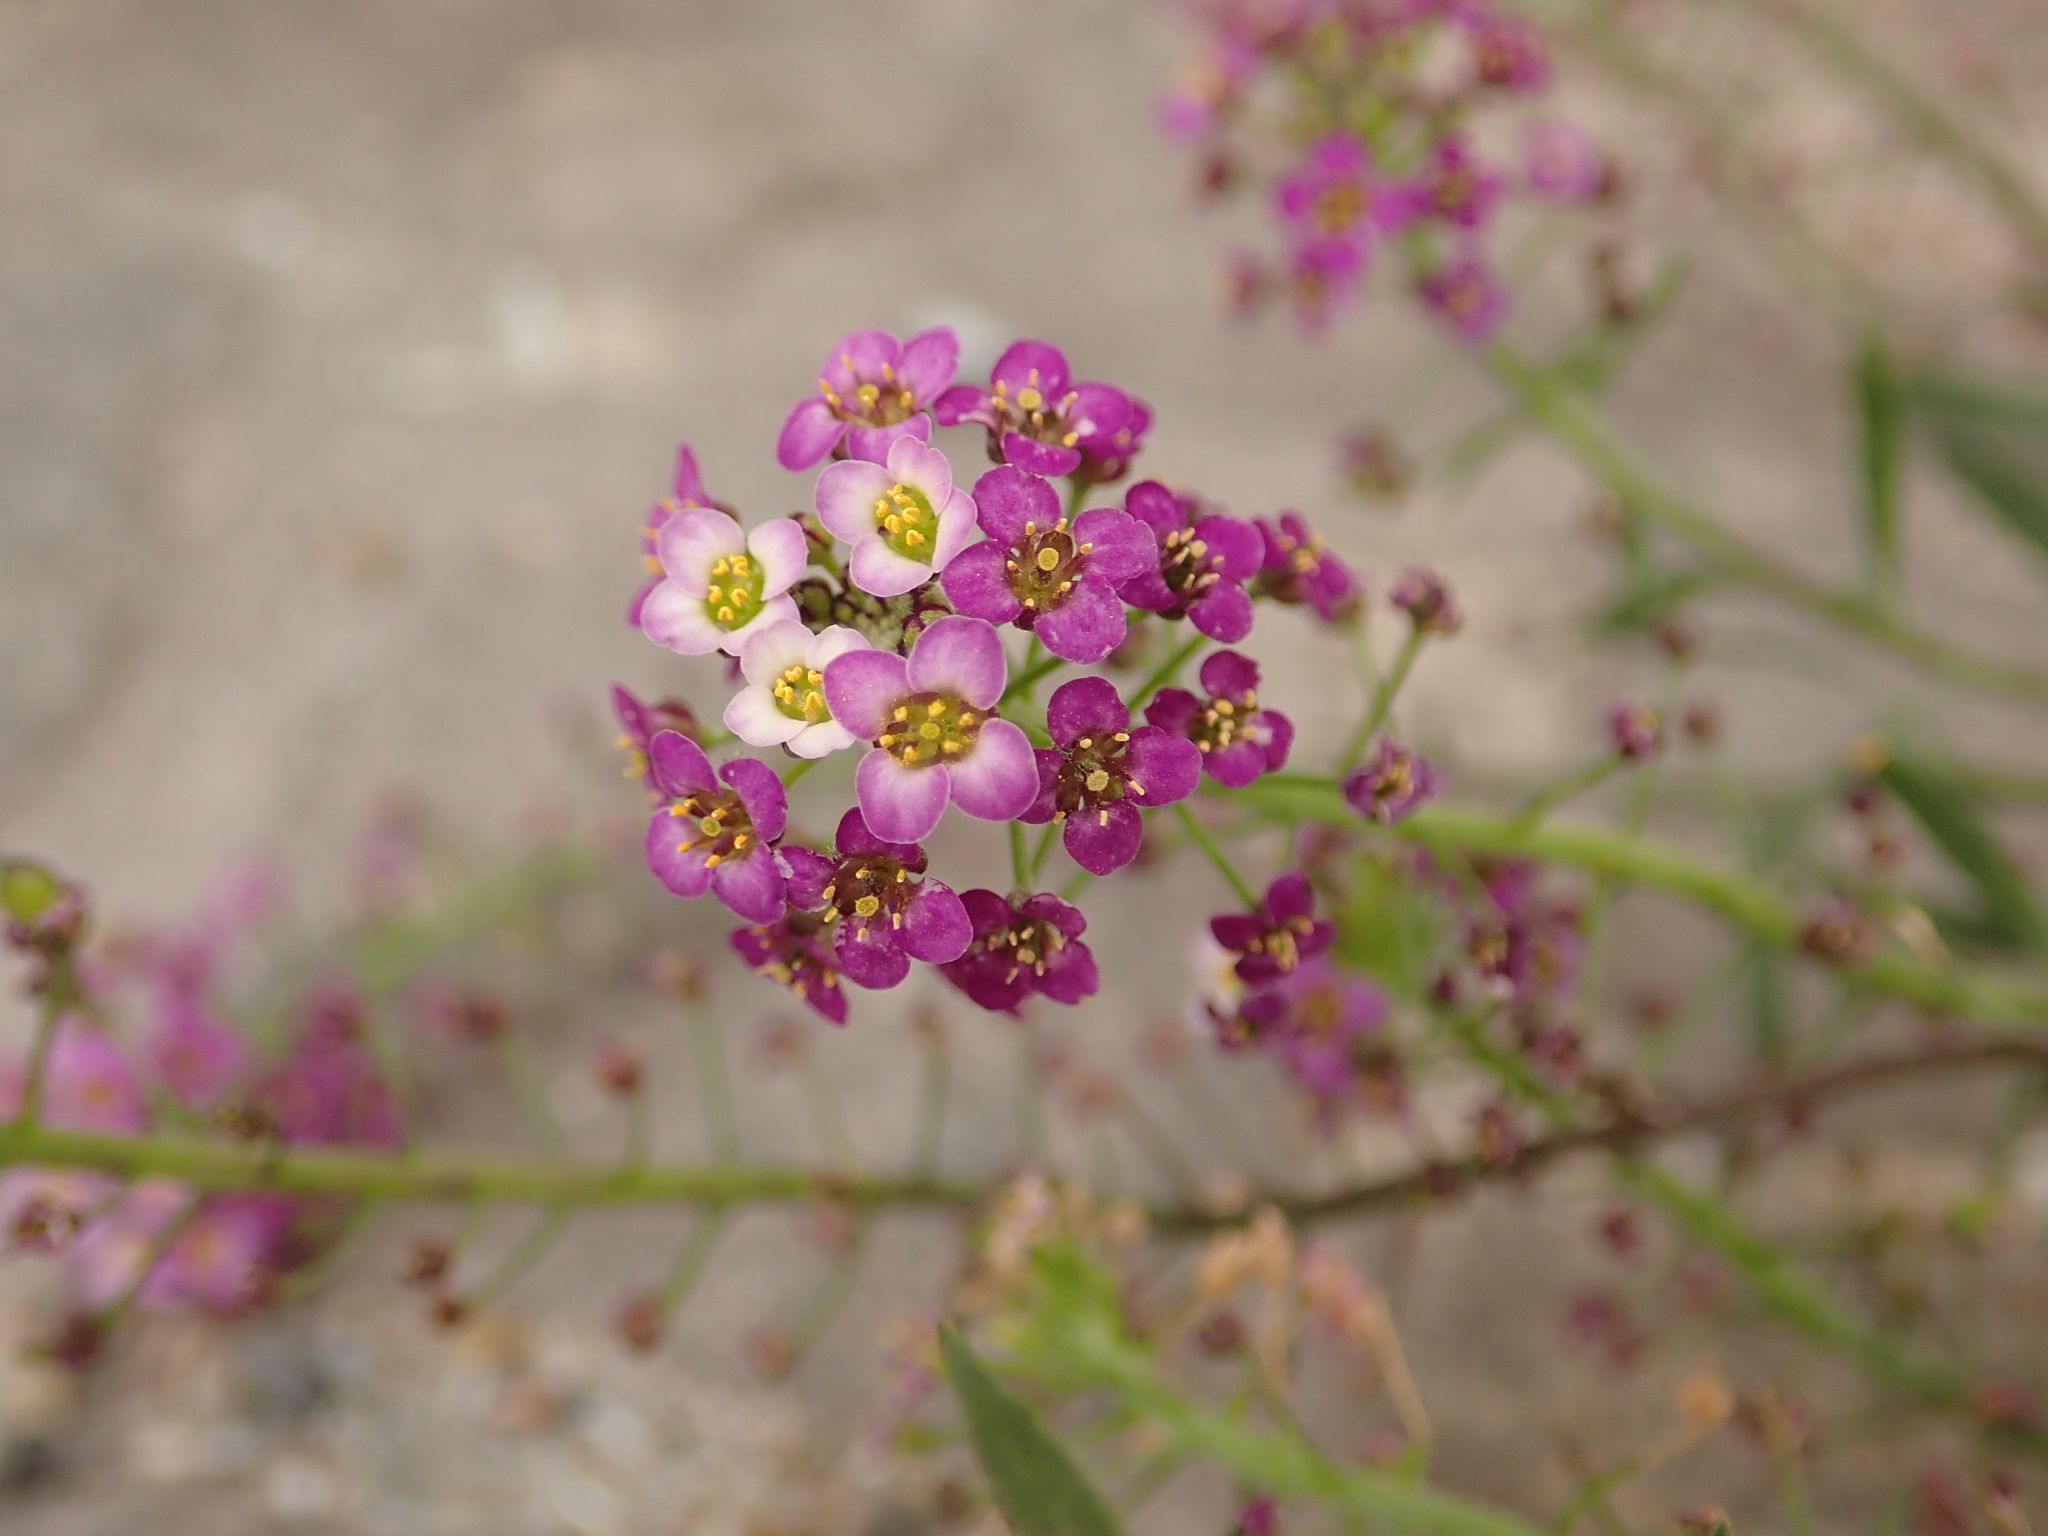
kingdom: Plantae
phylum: Tracheophyta
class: Magnoliopsida
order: Brassicales
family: Brassicaceae
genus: Lobularia
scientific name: Lobularia maritima
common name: Sweet alison
